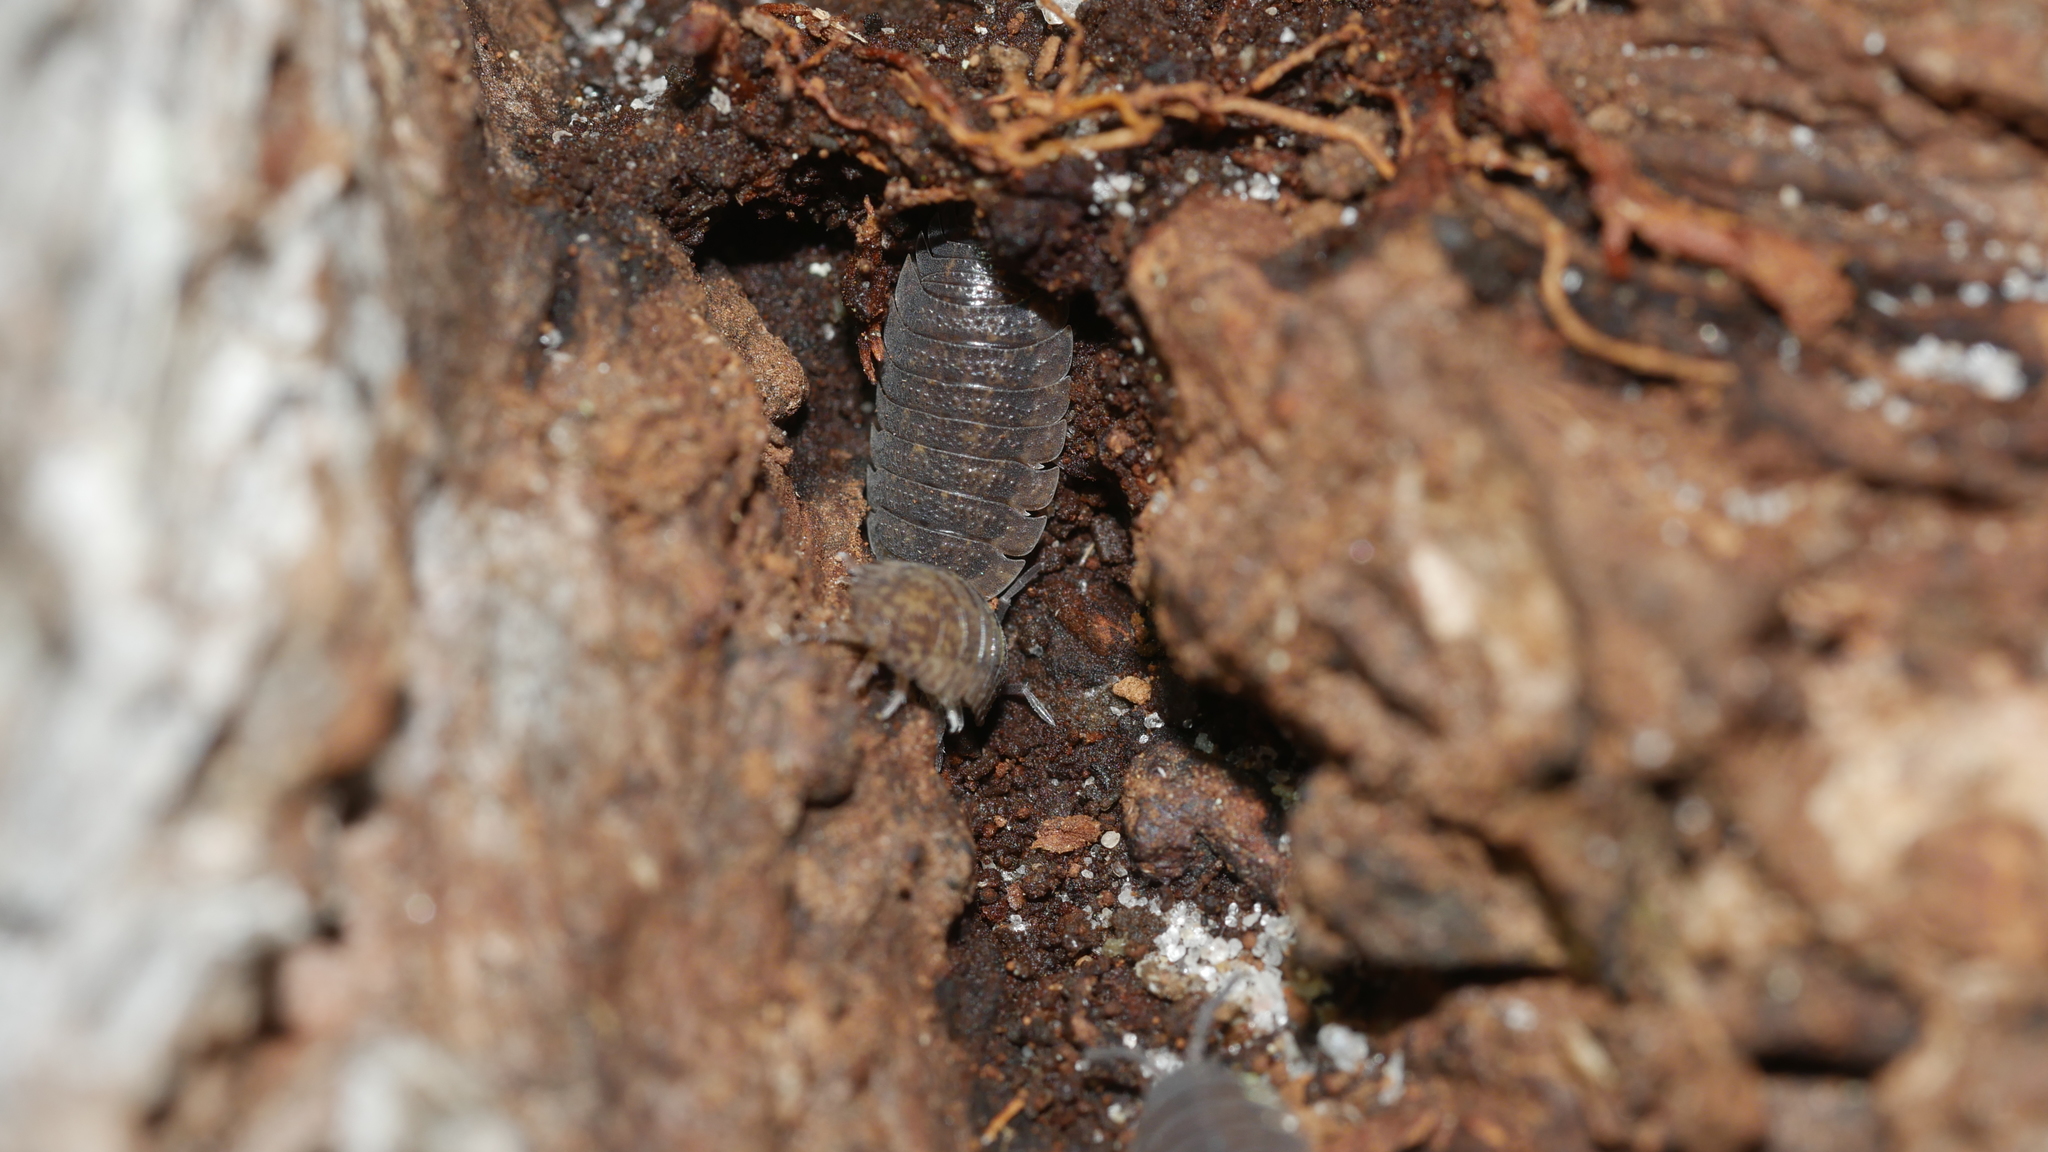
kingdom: Animalia
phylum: Arthropoda
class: Malacostraca
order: Isopoda
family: Porcellionidae
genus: Porcellio
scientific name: Porcellio scaber
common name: Common rough woodlouse
